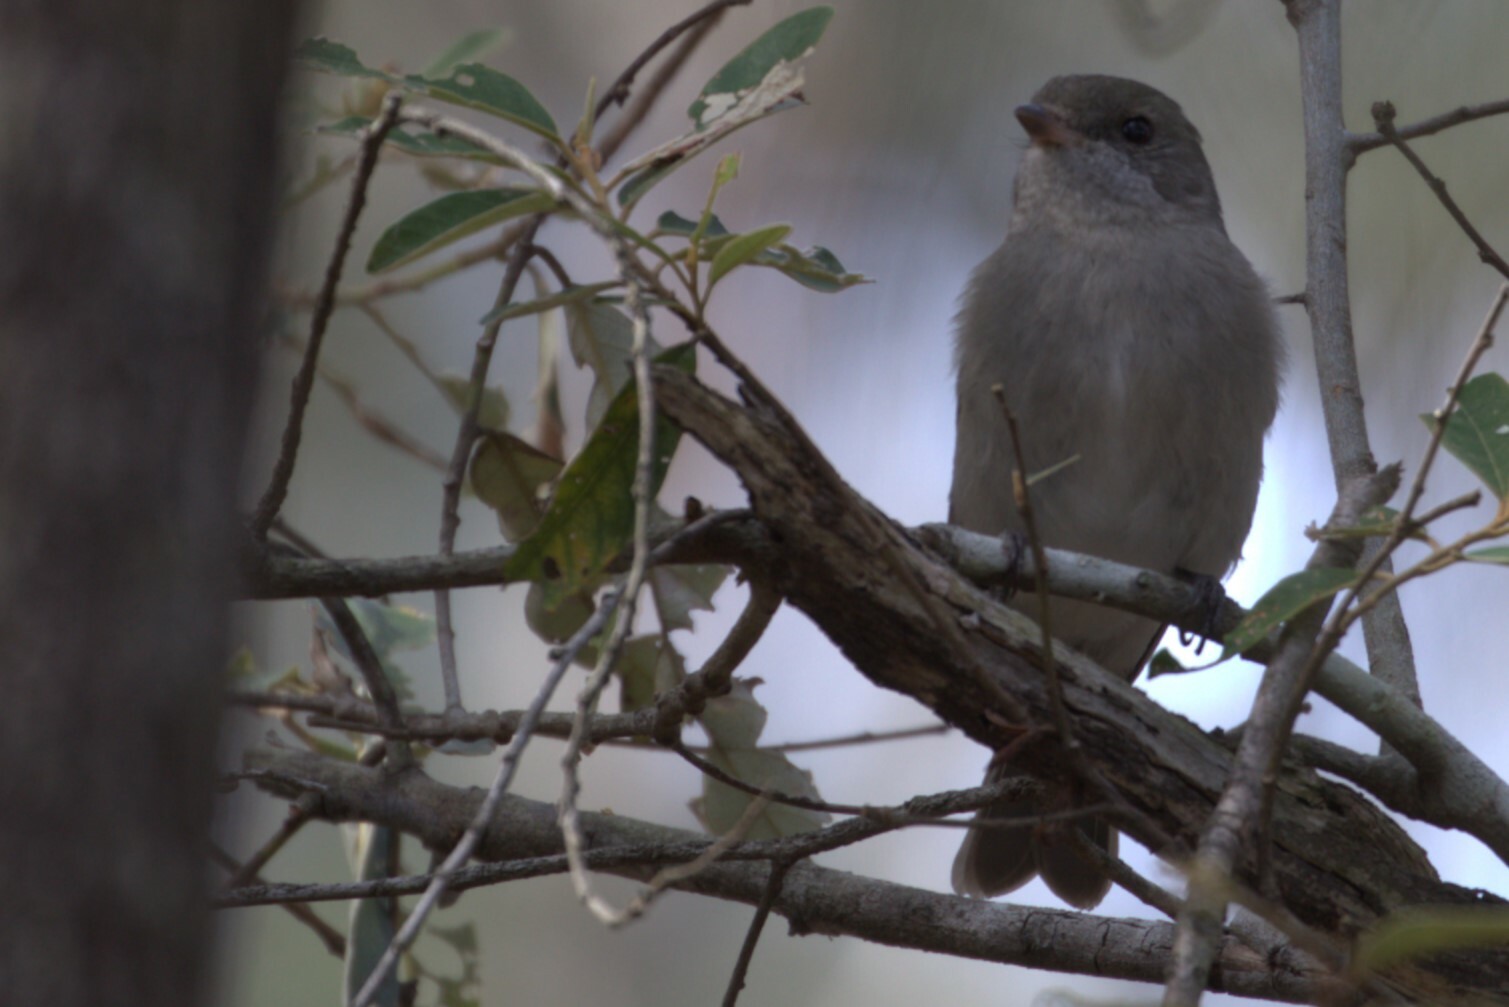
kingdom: Animalia
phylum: Chordata
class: Aves
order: Passeriformes
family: Pachycephalidae
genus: Pachycephala
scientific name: Pachycephala pectoralis
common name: Australian golden whistler
